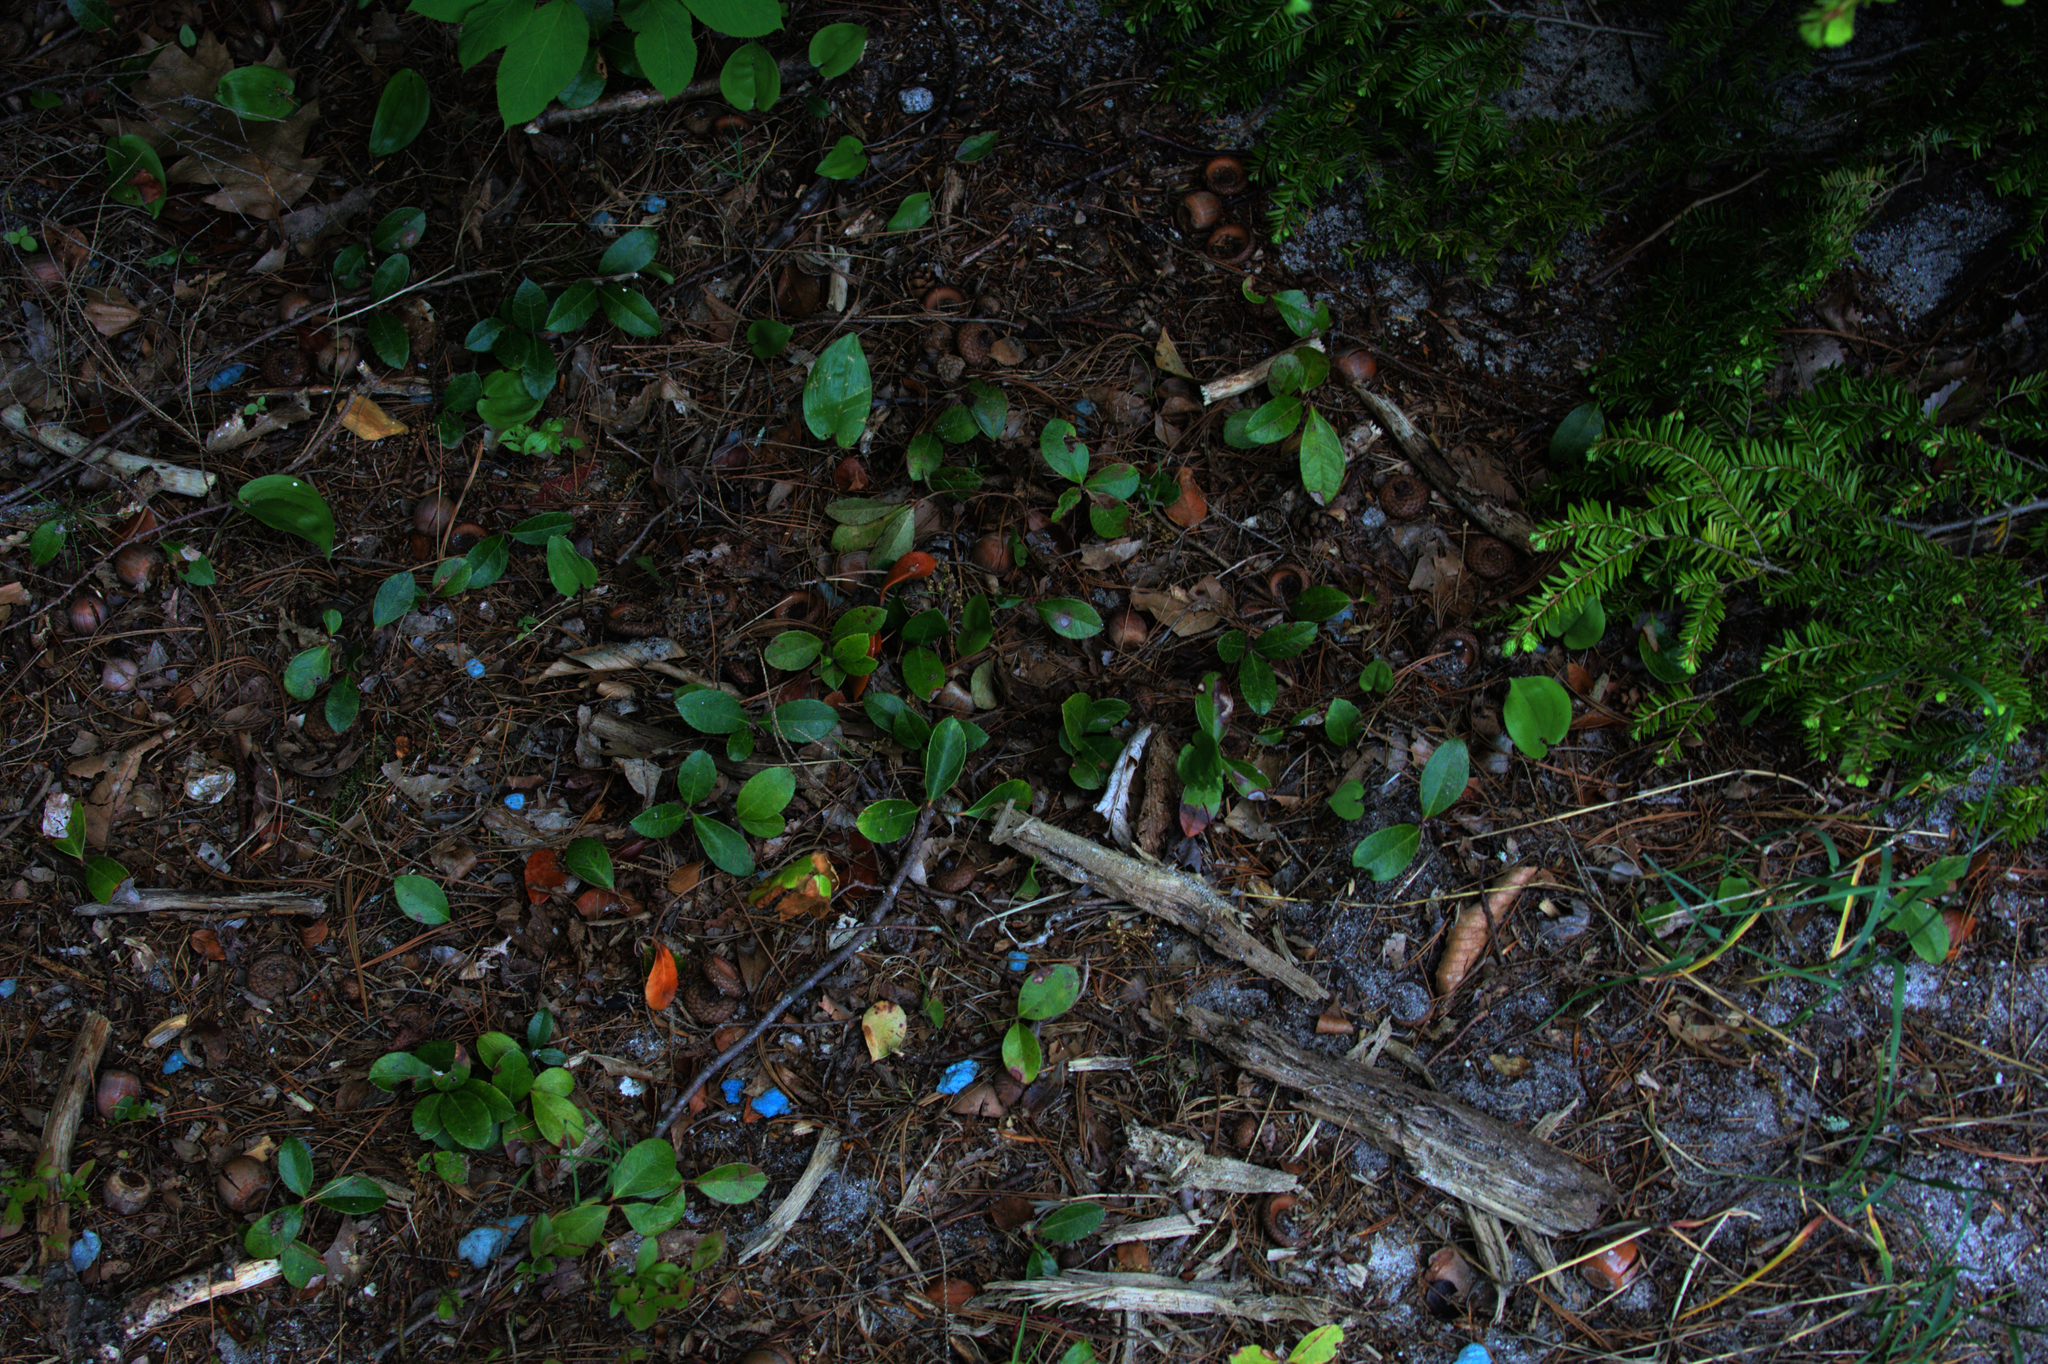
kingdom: Plantae
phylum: Tracheophyta
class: Pinopsida
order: Pinales
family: Pinaceae
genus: Tsuga
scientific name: Tsuga canadensis
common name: Eastern hemlock
